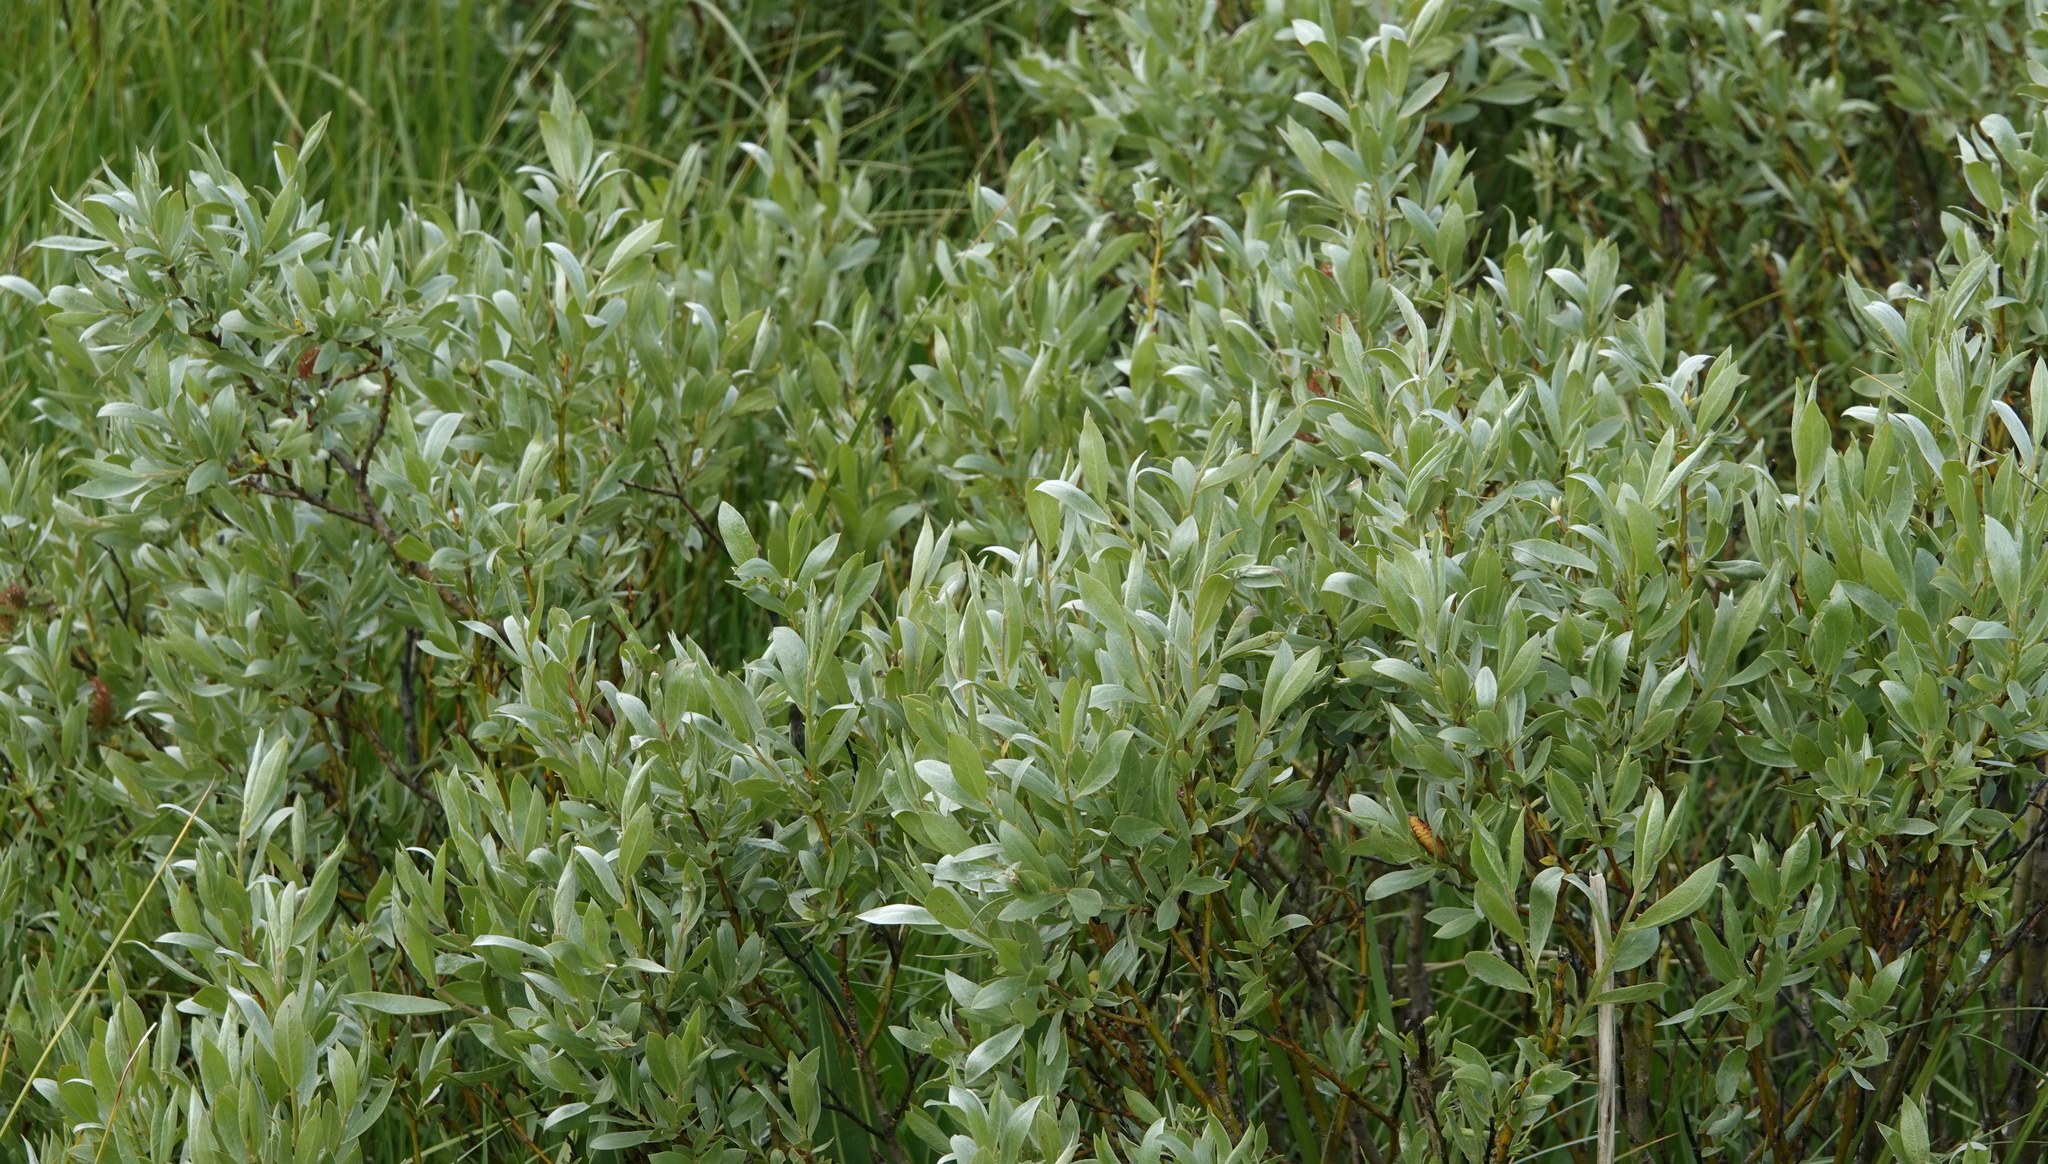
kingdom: Plantae
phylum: Tracheophyta
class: Magnoliopsida
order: Malpighiales
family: Salicaceae
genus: Salix
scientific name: Salix wolfii
